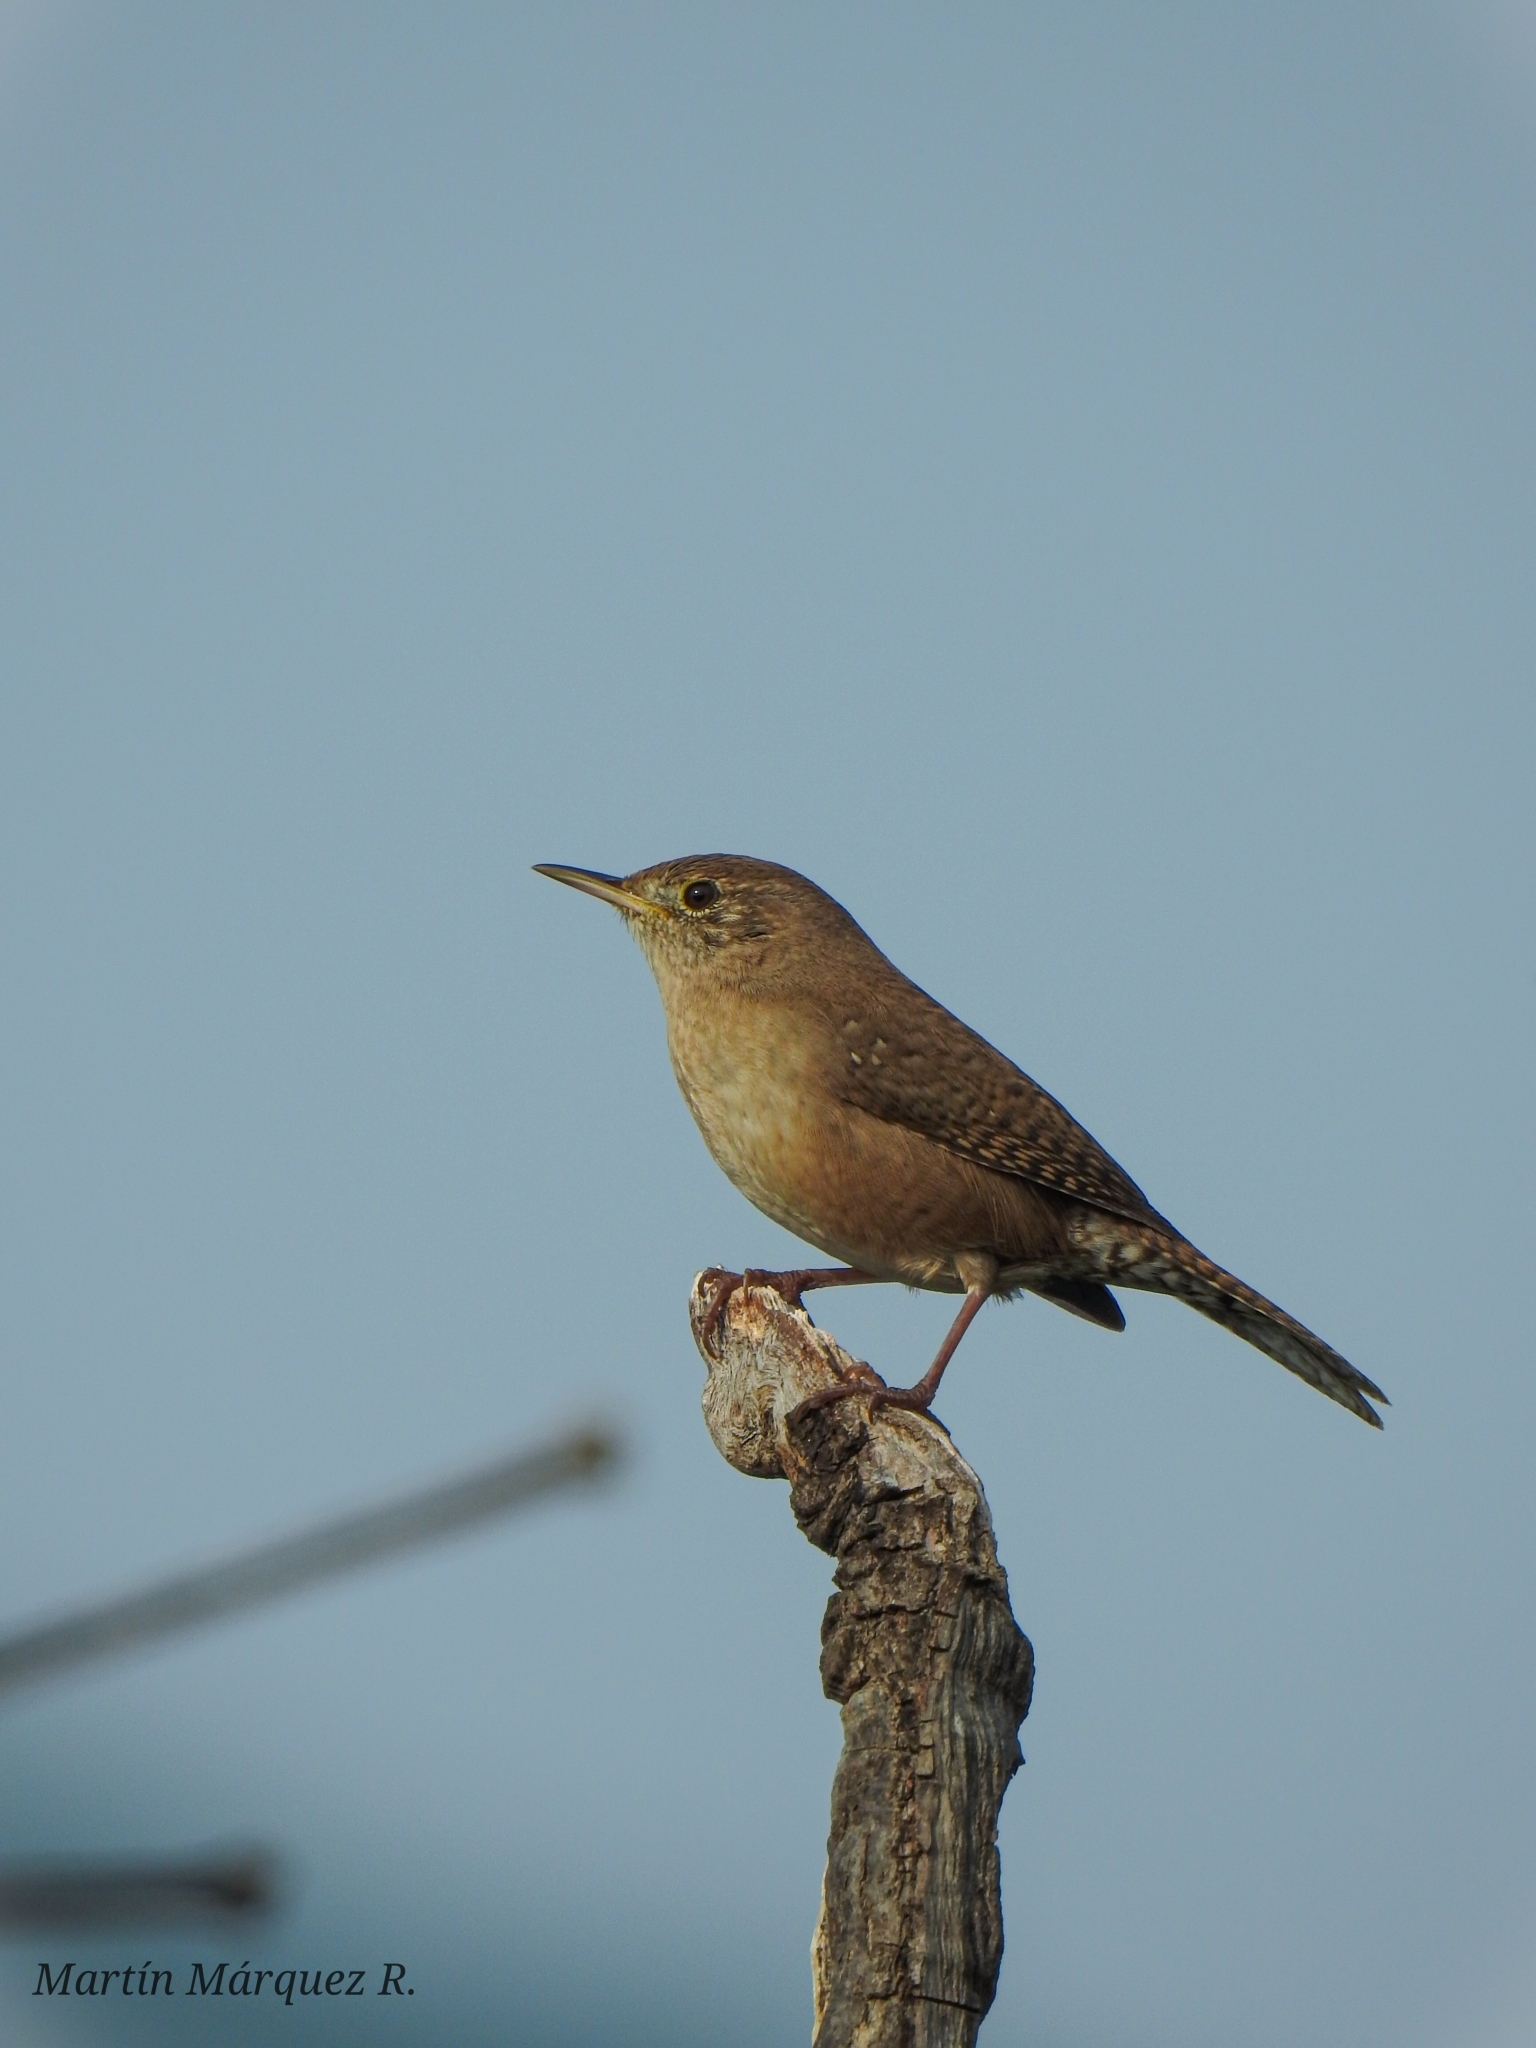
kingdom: Animalia
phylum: Chordata
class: Aves
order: Passeriformes
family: Troglodytidae
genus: Troglodytes
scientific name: Troglodytes aedon
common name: House wren
